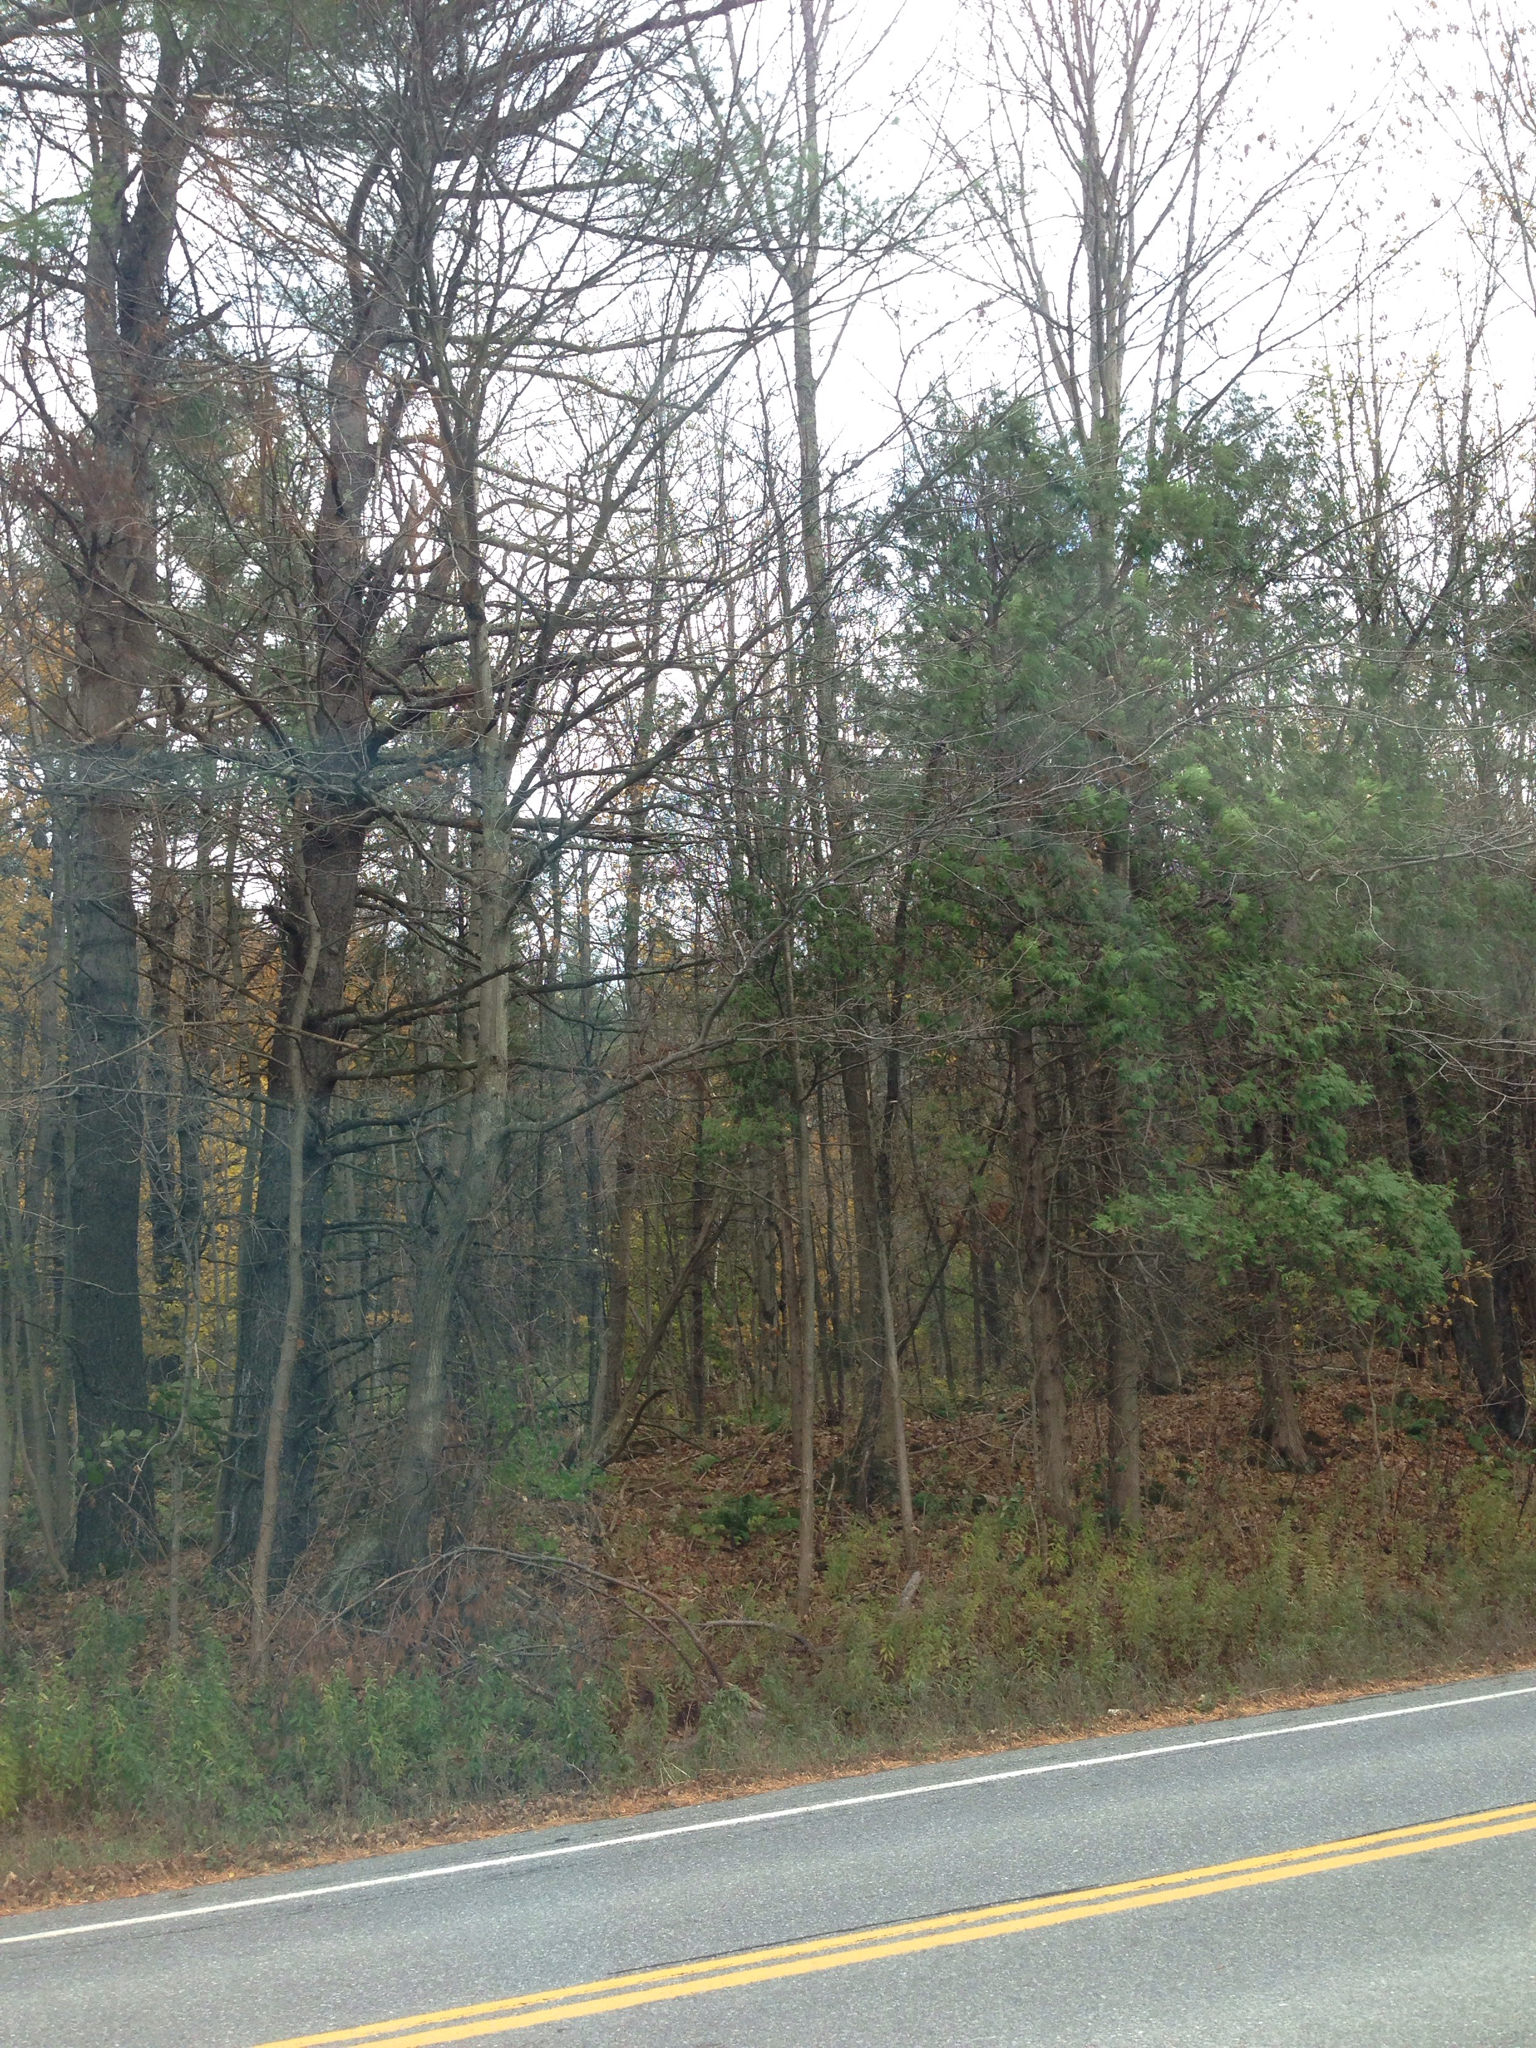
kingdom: Plantae
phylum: Tracheophyta
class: Pinopsida
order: Pinales
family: Pinaceae
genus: Pinus
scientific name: Pinus strobus
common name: Weymouth pine
